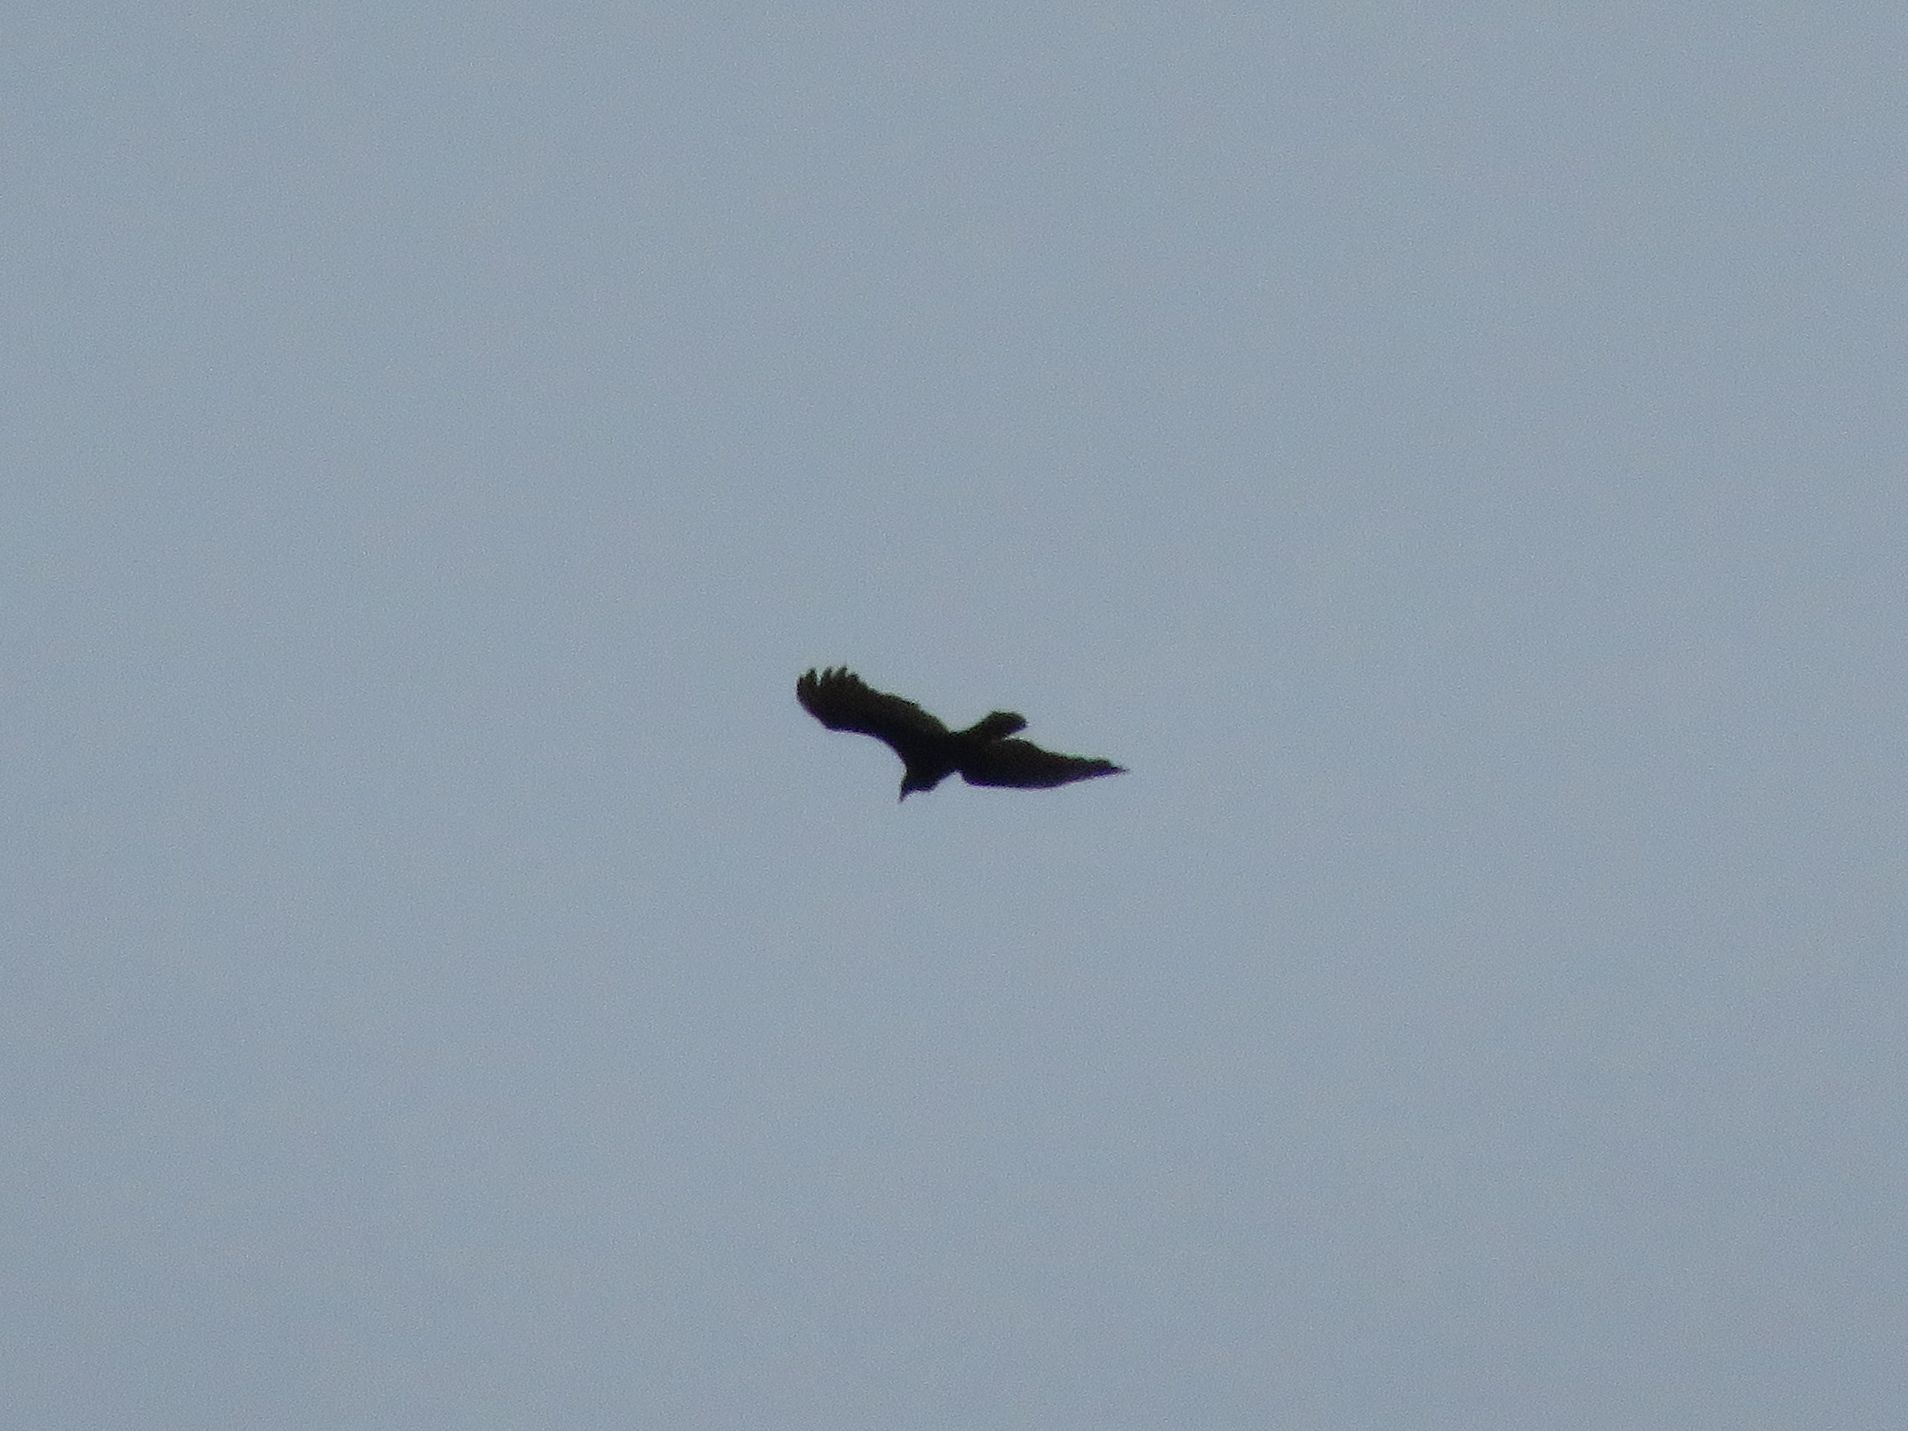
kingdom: Animalia
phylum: Chordata
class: Aves
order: Accipitriformes
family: Accipitridae
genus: Buteo
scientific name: Buteo polyosoma
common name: Variable hawk
